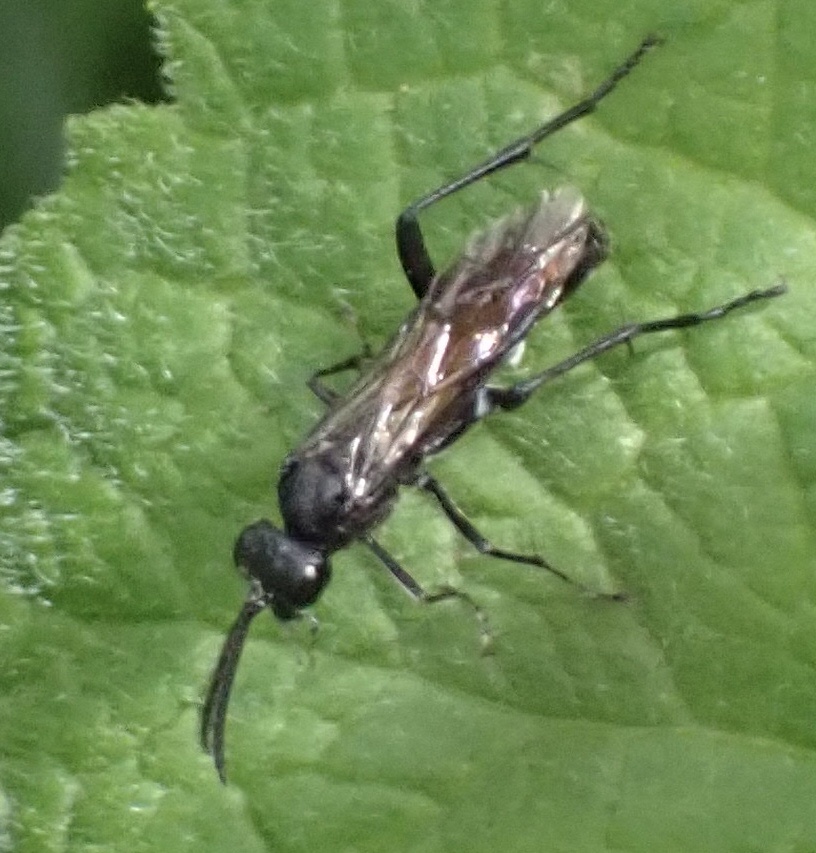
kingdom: Animalia
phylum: Arthropoda
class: Insecta
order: Hymenoptera
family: Tenthredinidae
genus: Macrophya
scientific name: Macrophya annulata
